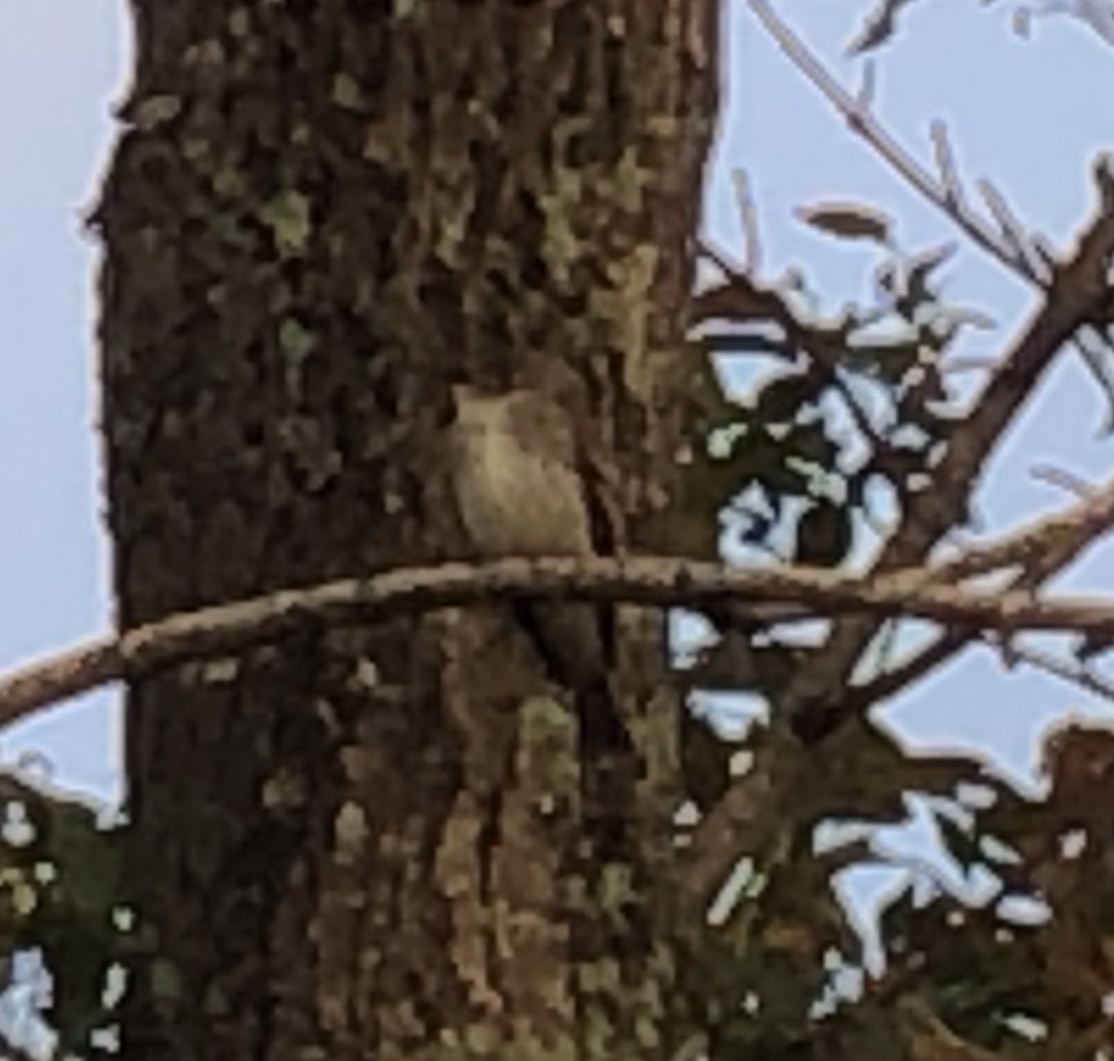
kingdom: Animalia
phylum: Chordata
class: Aves
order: Passeriformes
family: Tyrannidae
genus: Sayornis
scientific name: Sayornis phoebe
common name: Eastern phoebe
